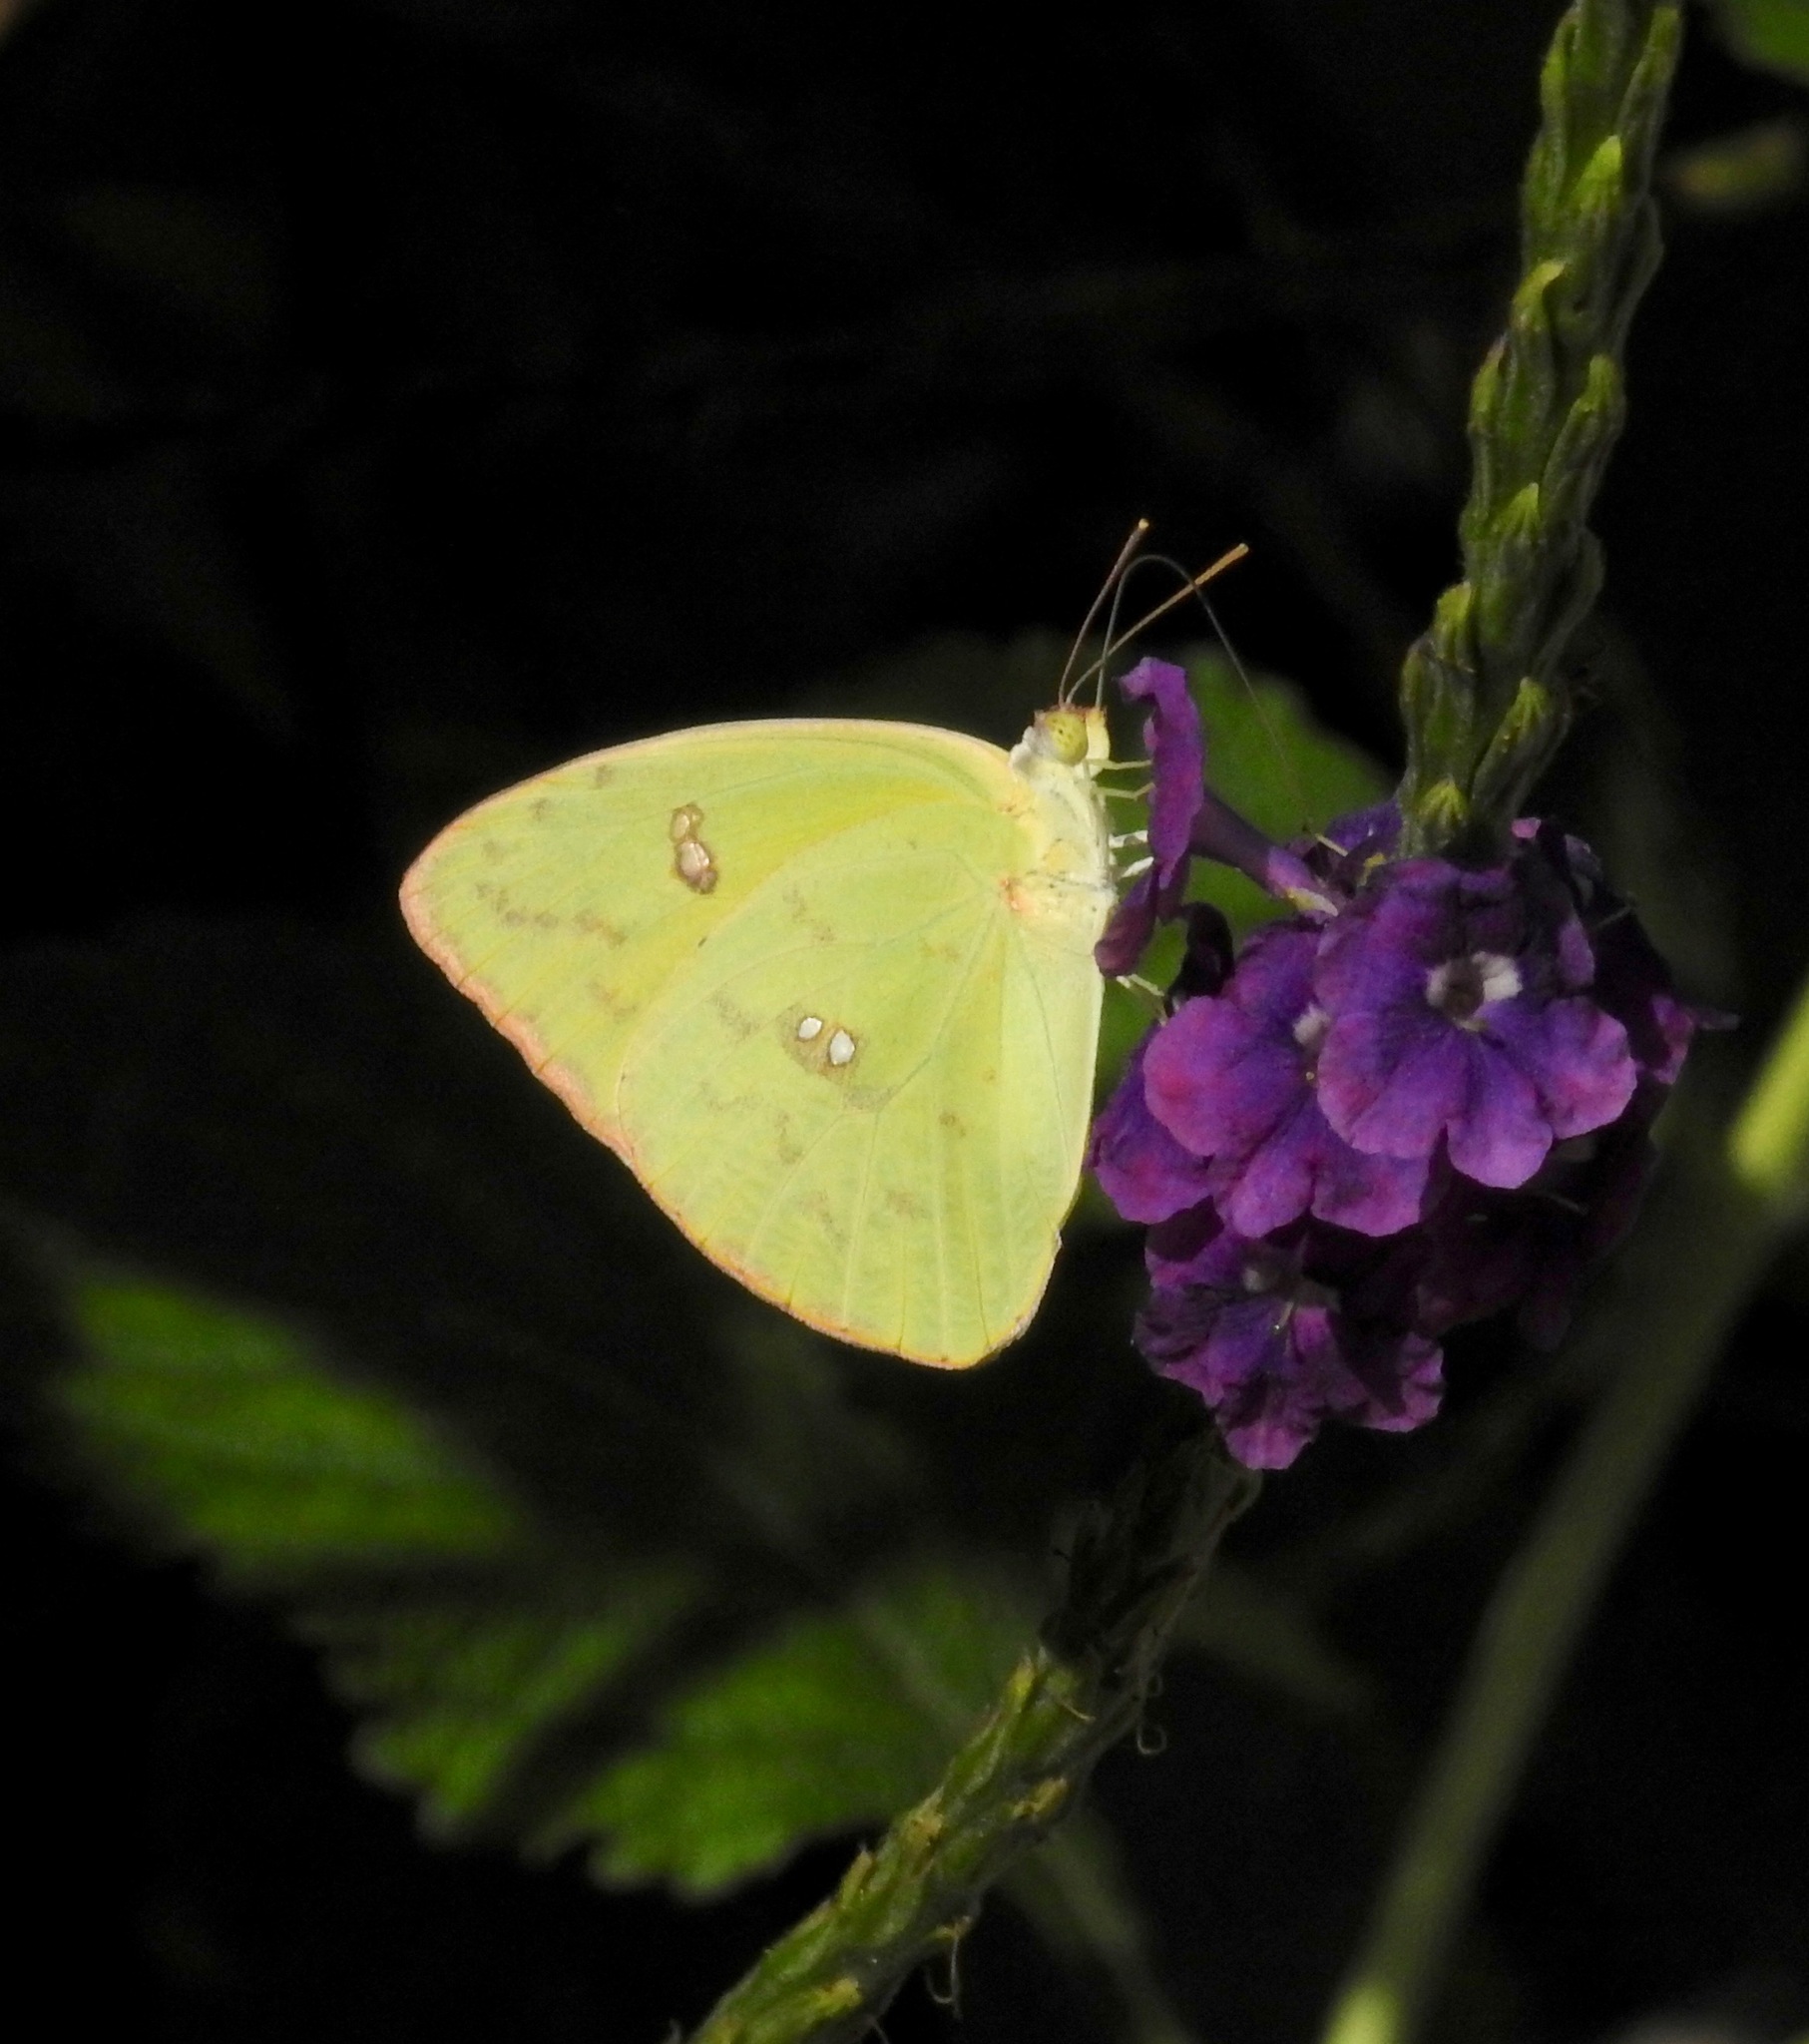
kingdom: Animalia
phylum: Arthropoda
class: Insecta
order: Lepidoptera
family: Pieridae
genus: Phoebis
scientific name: Phoebis marcellina
